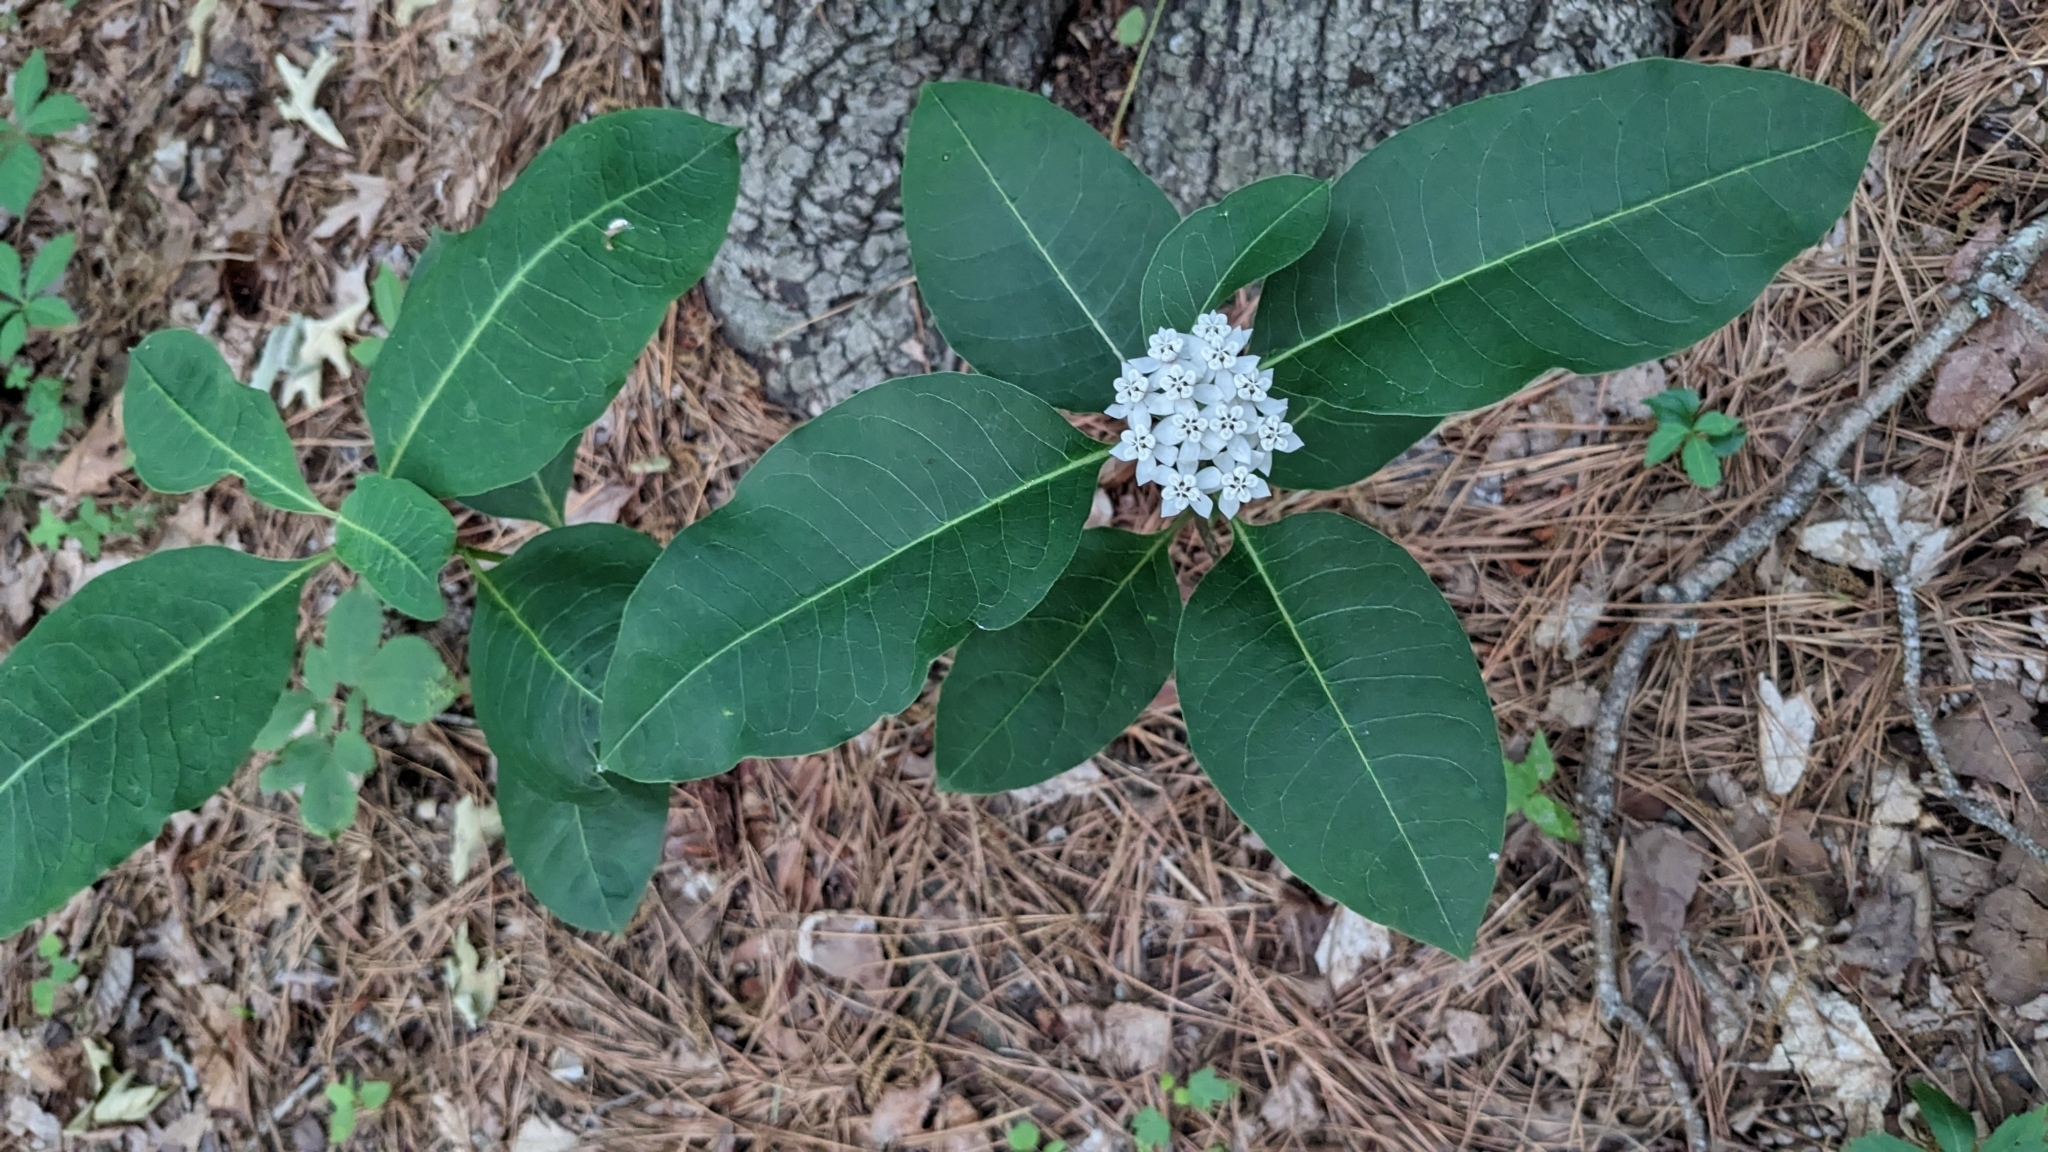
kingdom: Plantae
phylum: Tracheophyta
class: Magnoliopsida
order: Gentianales
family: Apocynaceae
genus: Asclepias
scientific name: Asclepias variegata
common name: Variegated milkweed
